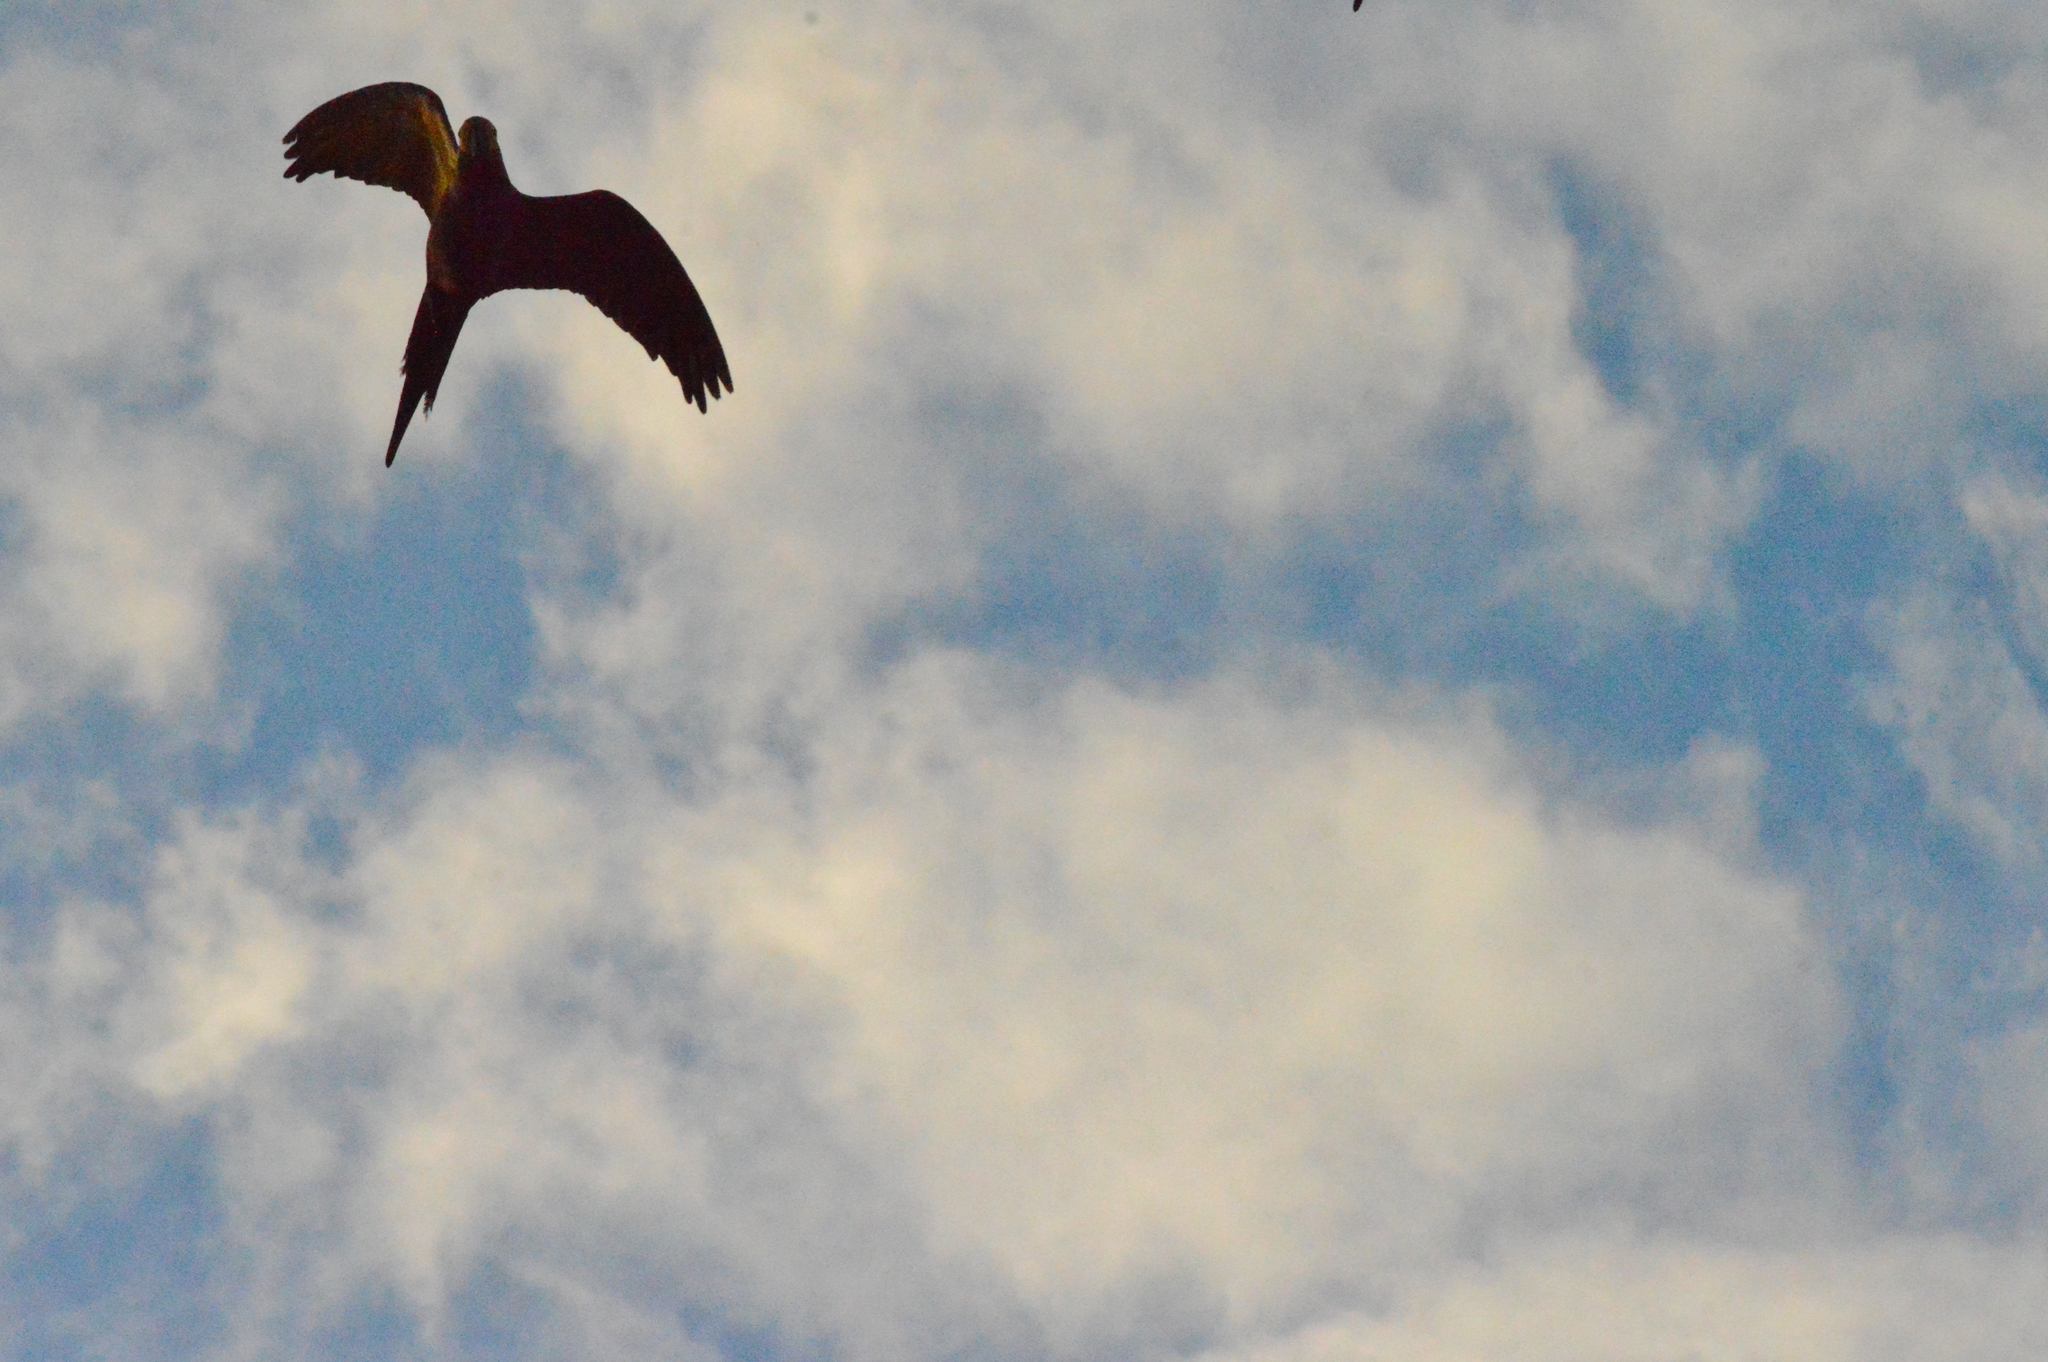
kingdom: Animalia
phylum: Chordata
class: Aves
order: Psittaciformes
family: Psittacidae
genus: Orthopsittaca
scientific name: Orthopsittaca manilata
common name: Red-bellied macaw
